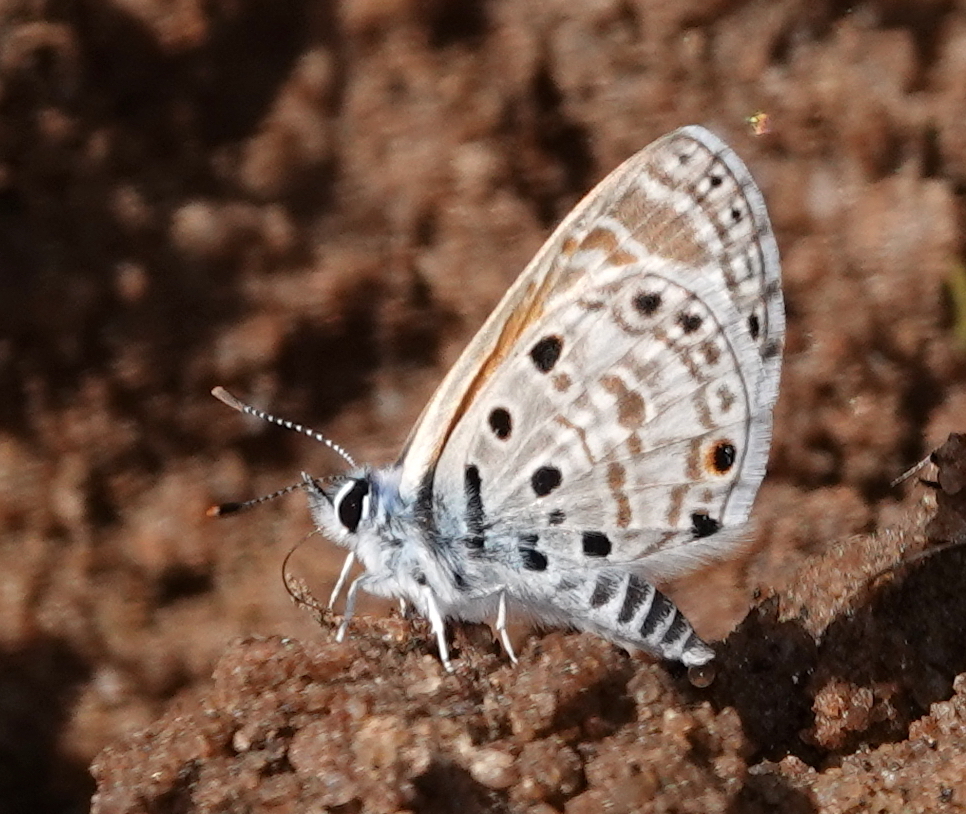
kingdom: Animalia
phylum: Arthropoda
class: Insecta
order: Lepidoptera
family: Lycaenidae
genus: Azanus
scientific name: Azanus jesous
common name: African babul blue
